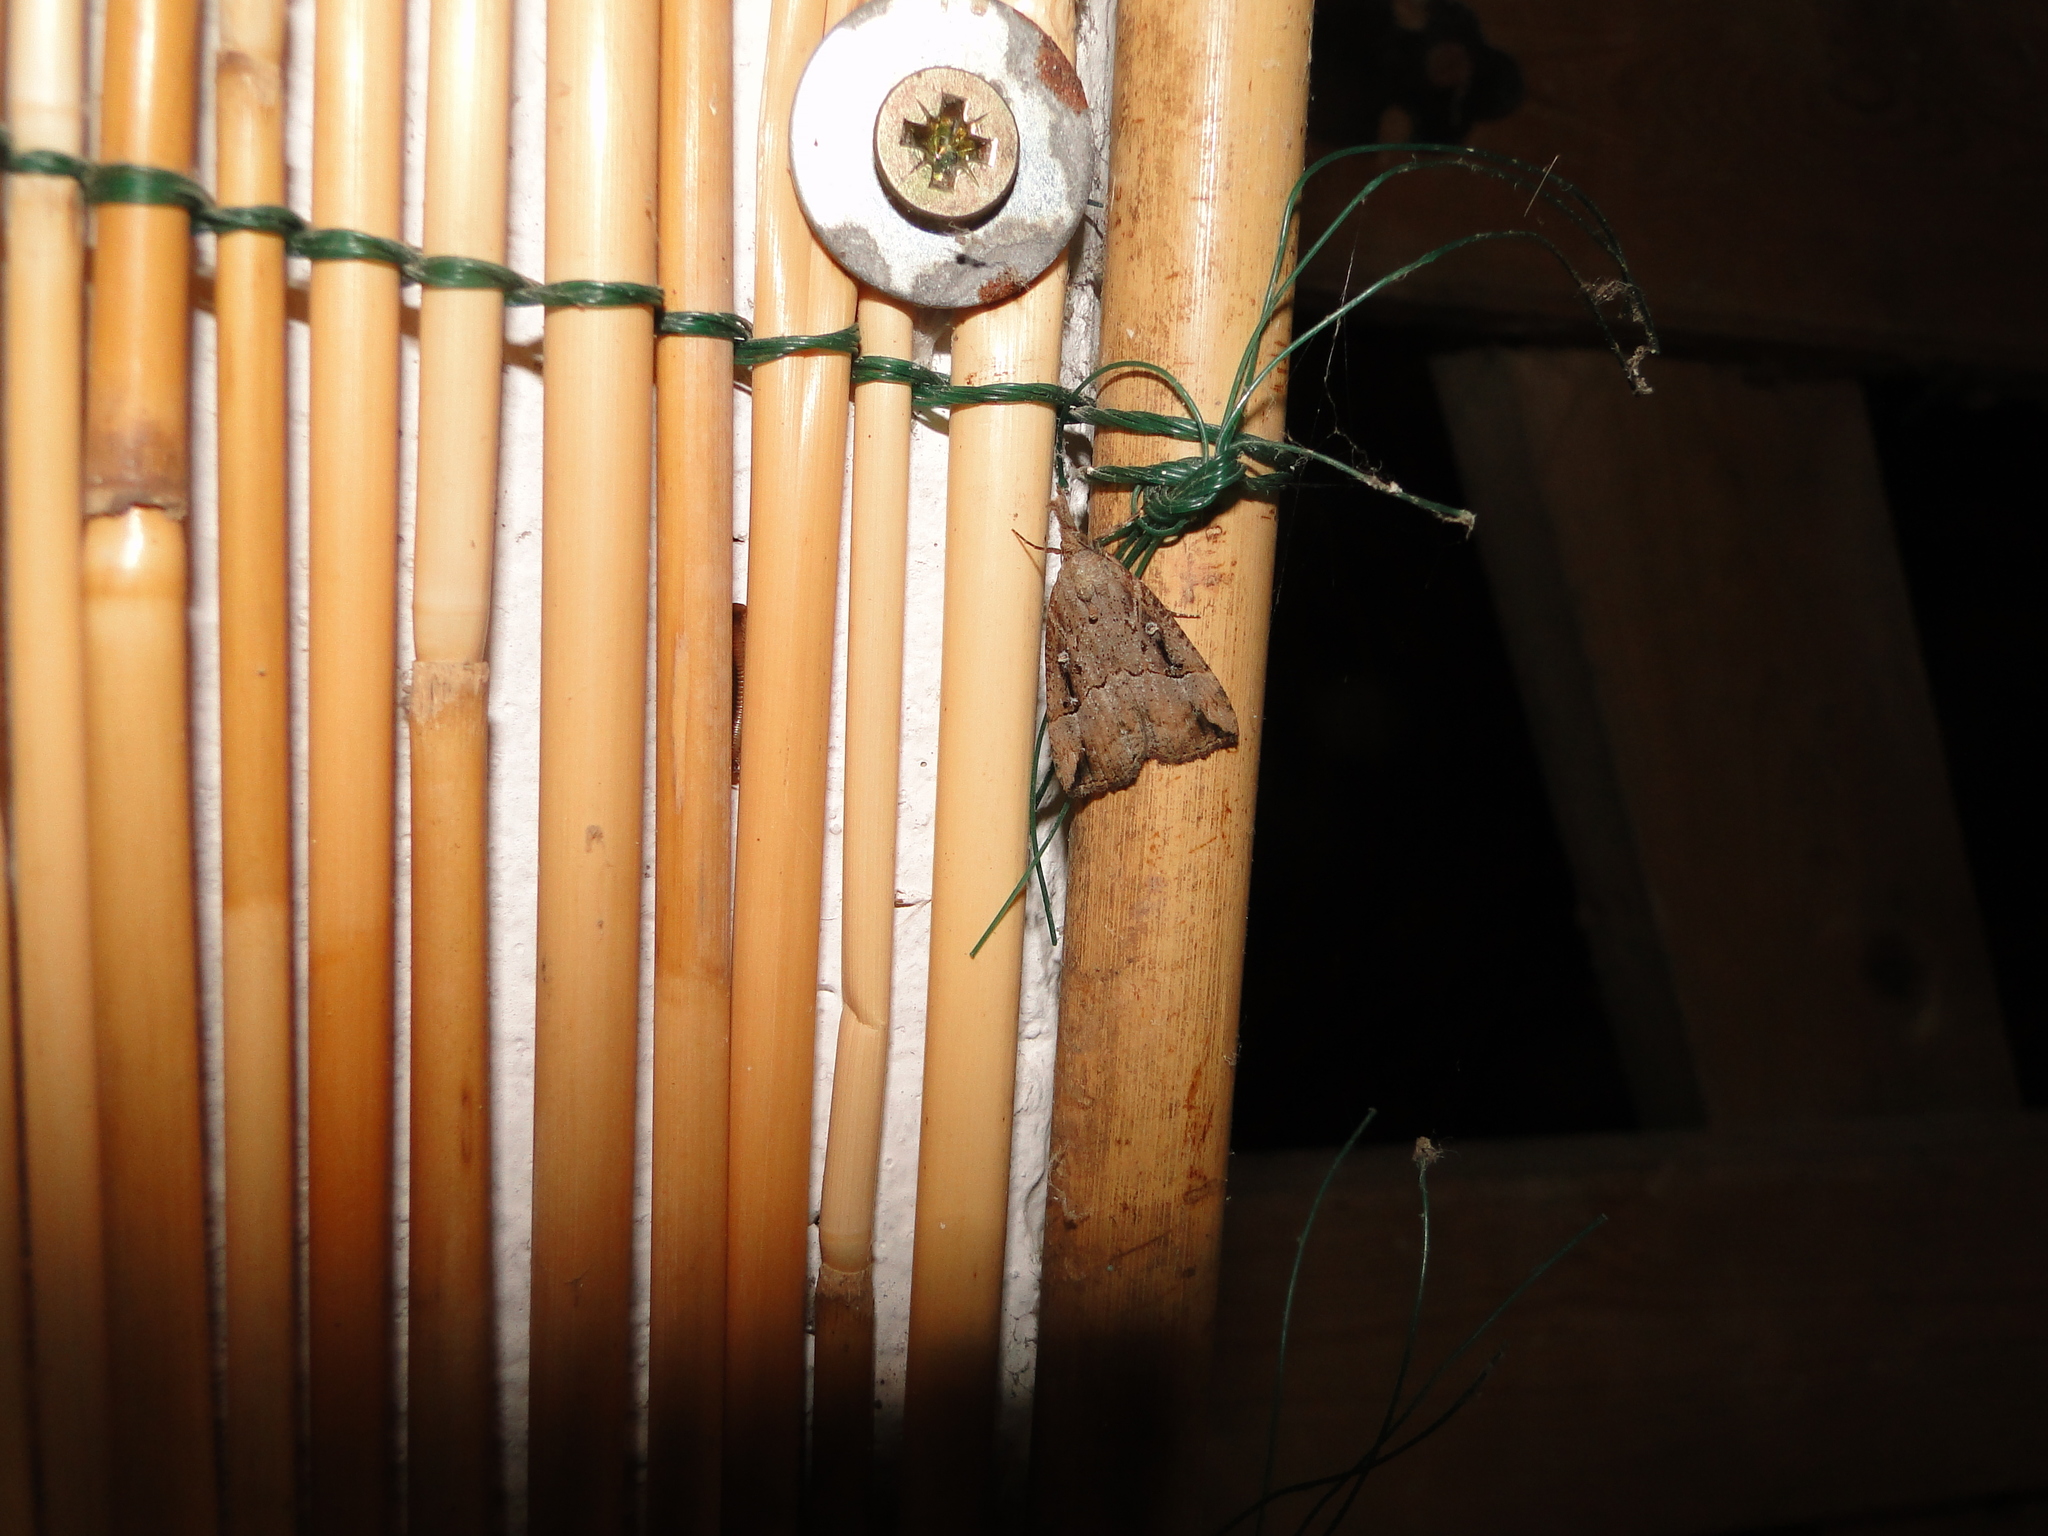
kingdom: Animalia
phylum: Arthropoda
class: Insecta
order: Lepidoptera
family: Erebidae
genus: Hypena
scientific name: Hypena rostralis
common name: Buttoned snout
